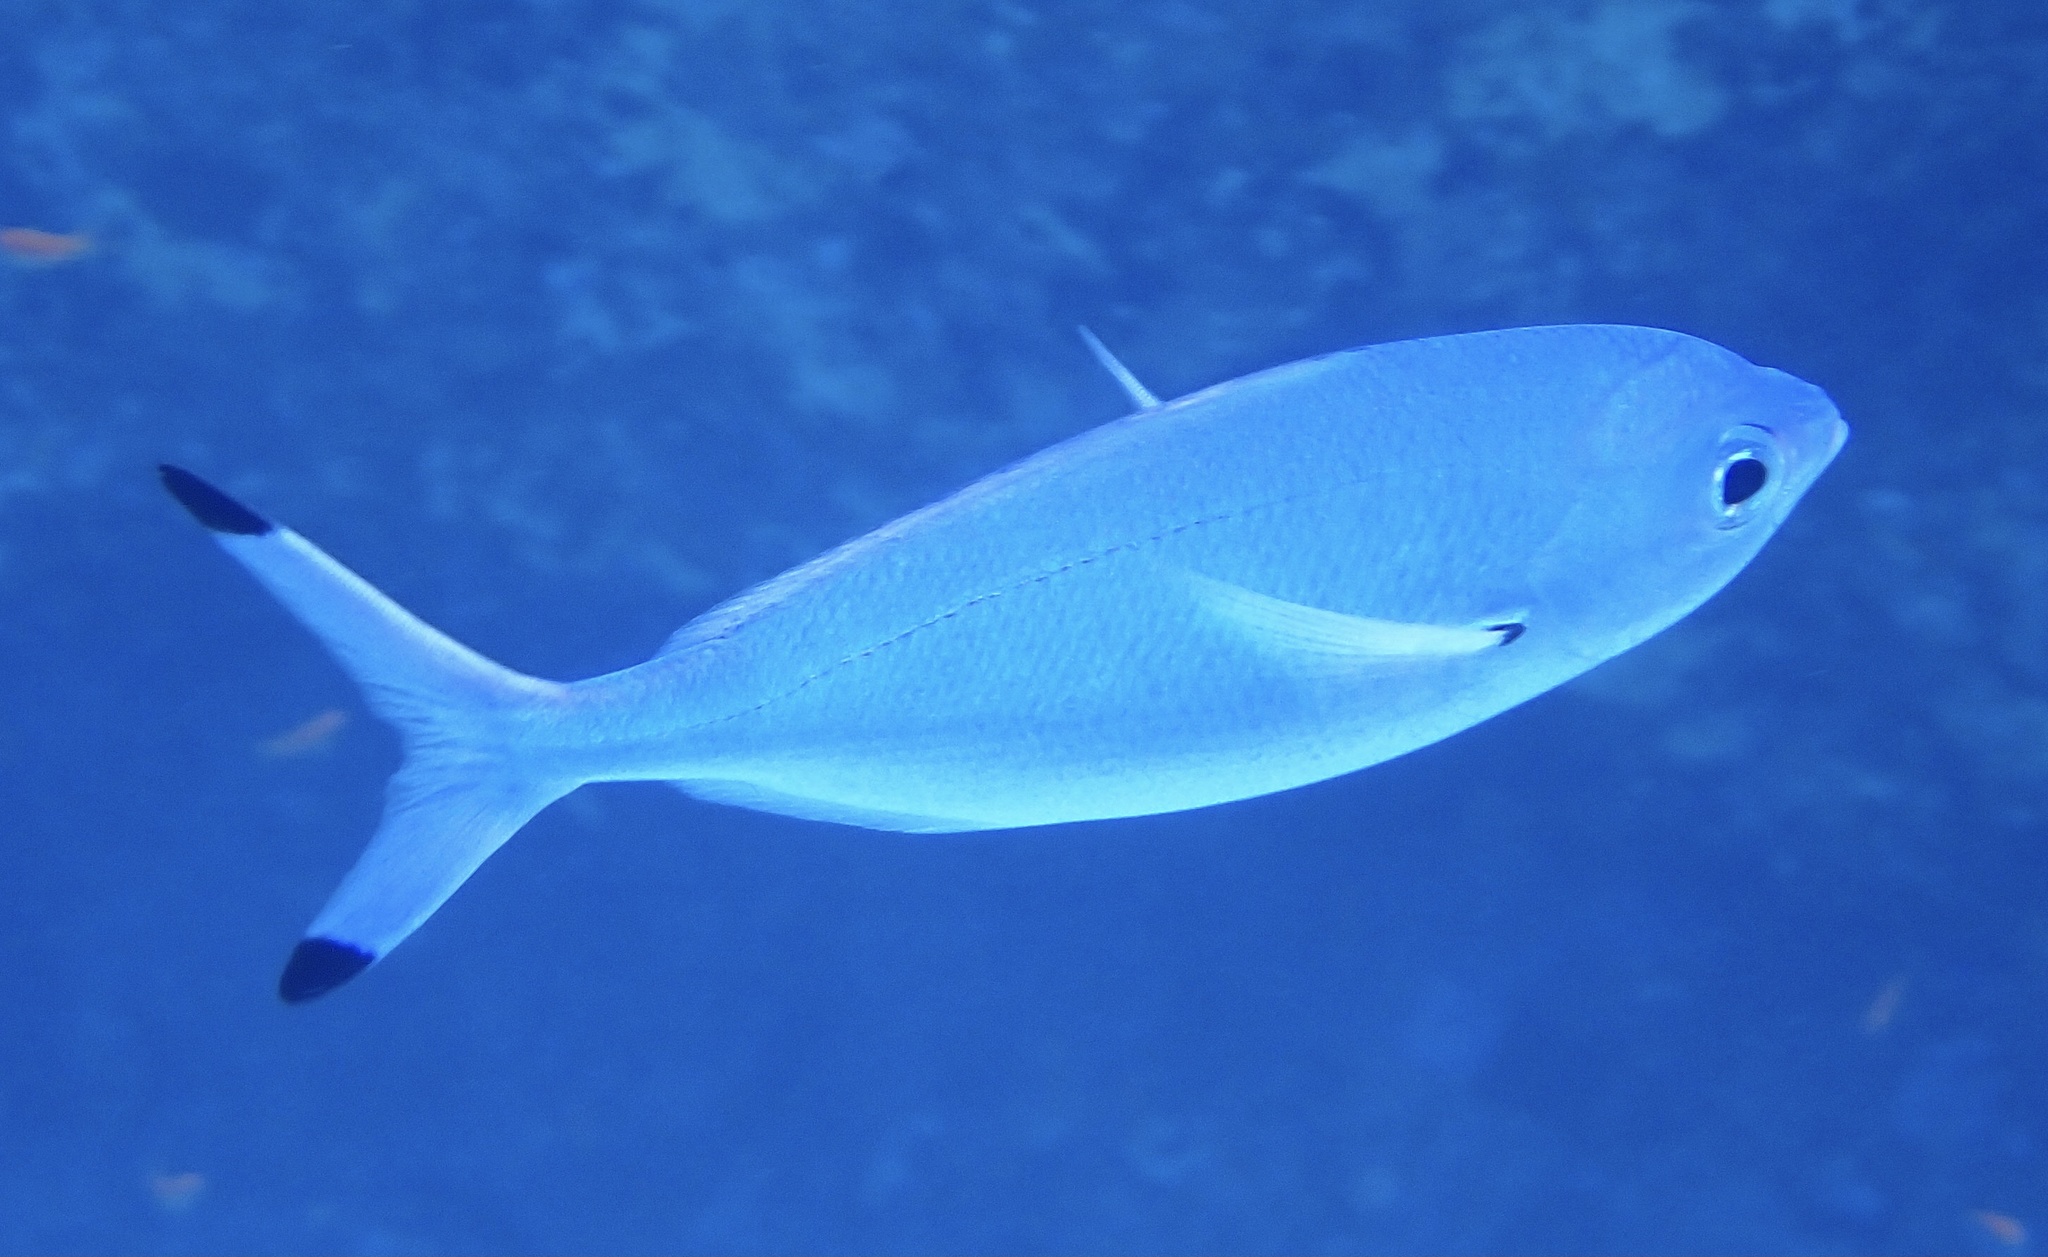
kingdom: Animalia
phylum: Chordata
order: Perciformes
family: Caesionidae
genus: Caesio
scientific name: Caesio lunaris
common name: Blue fusilier
